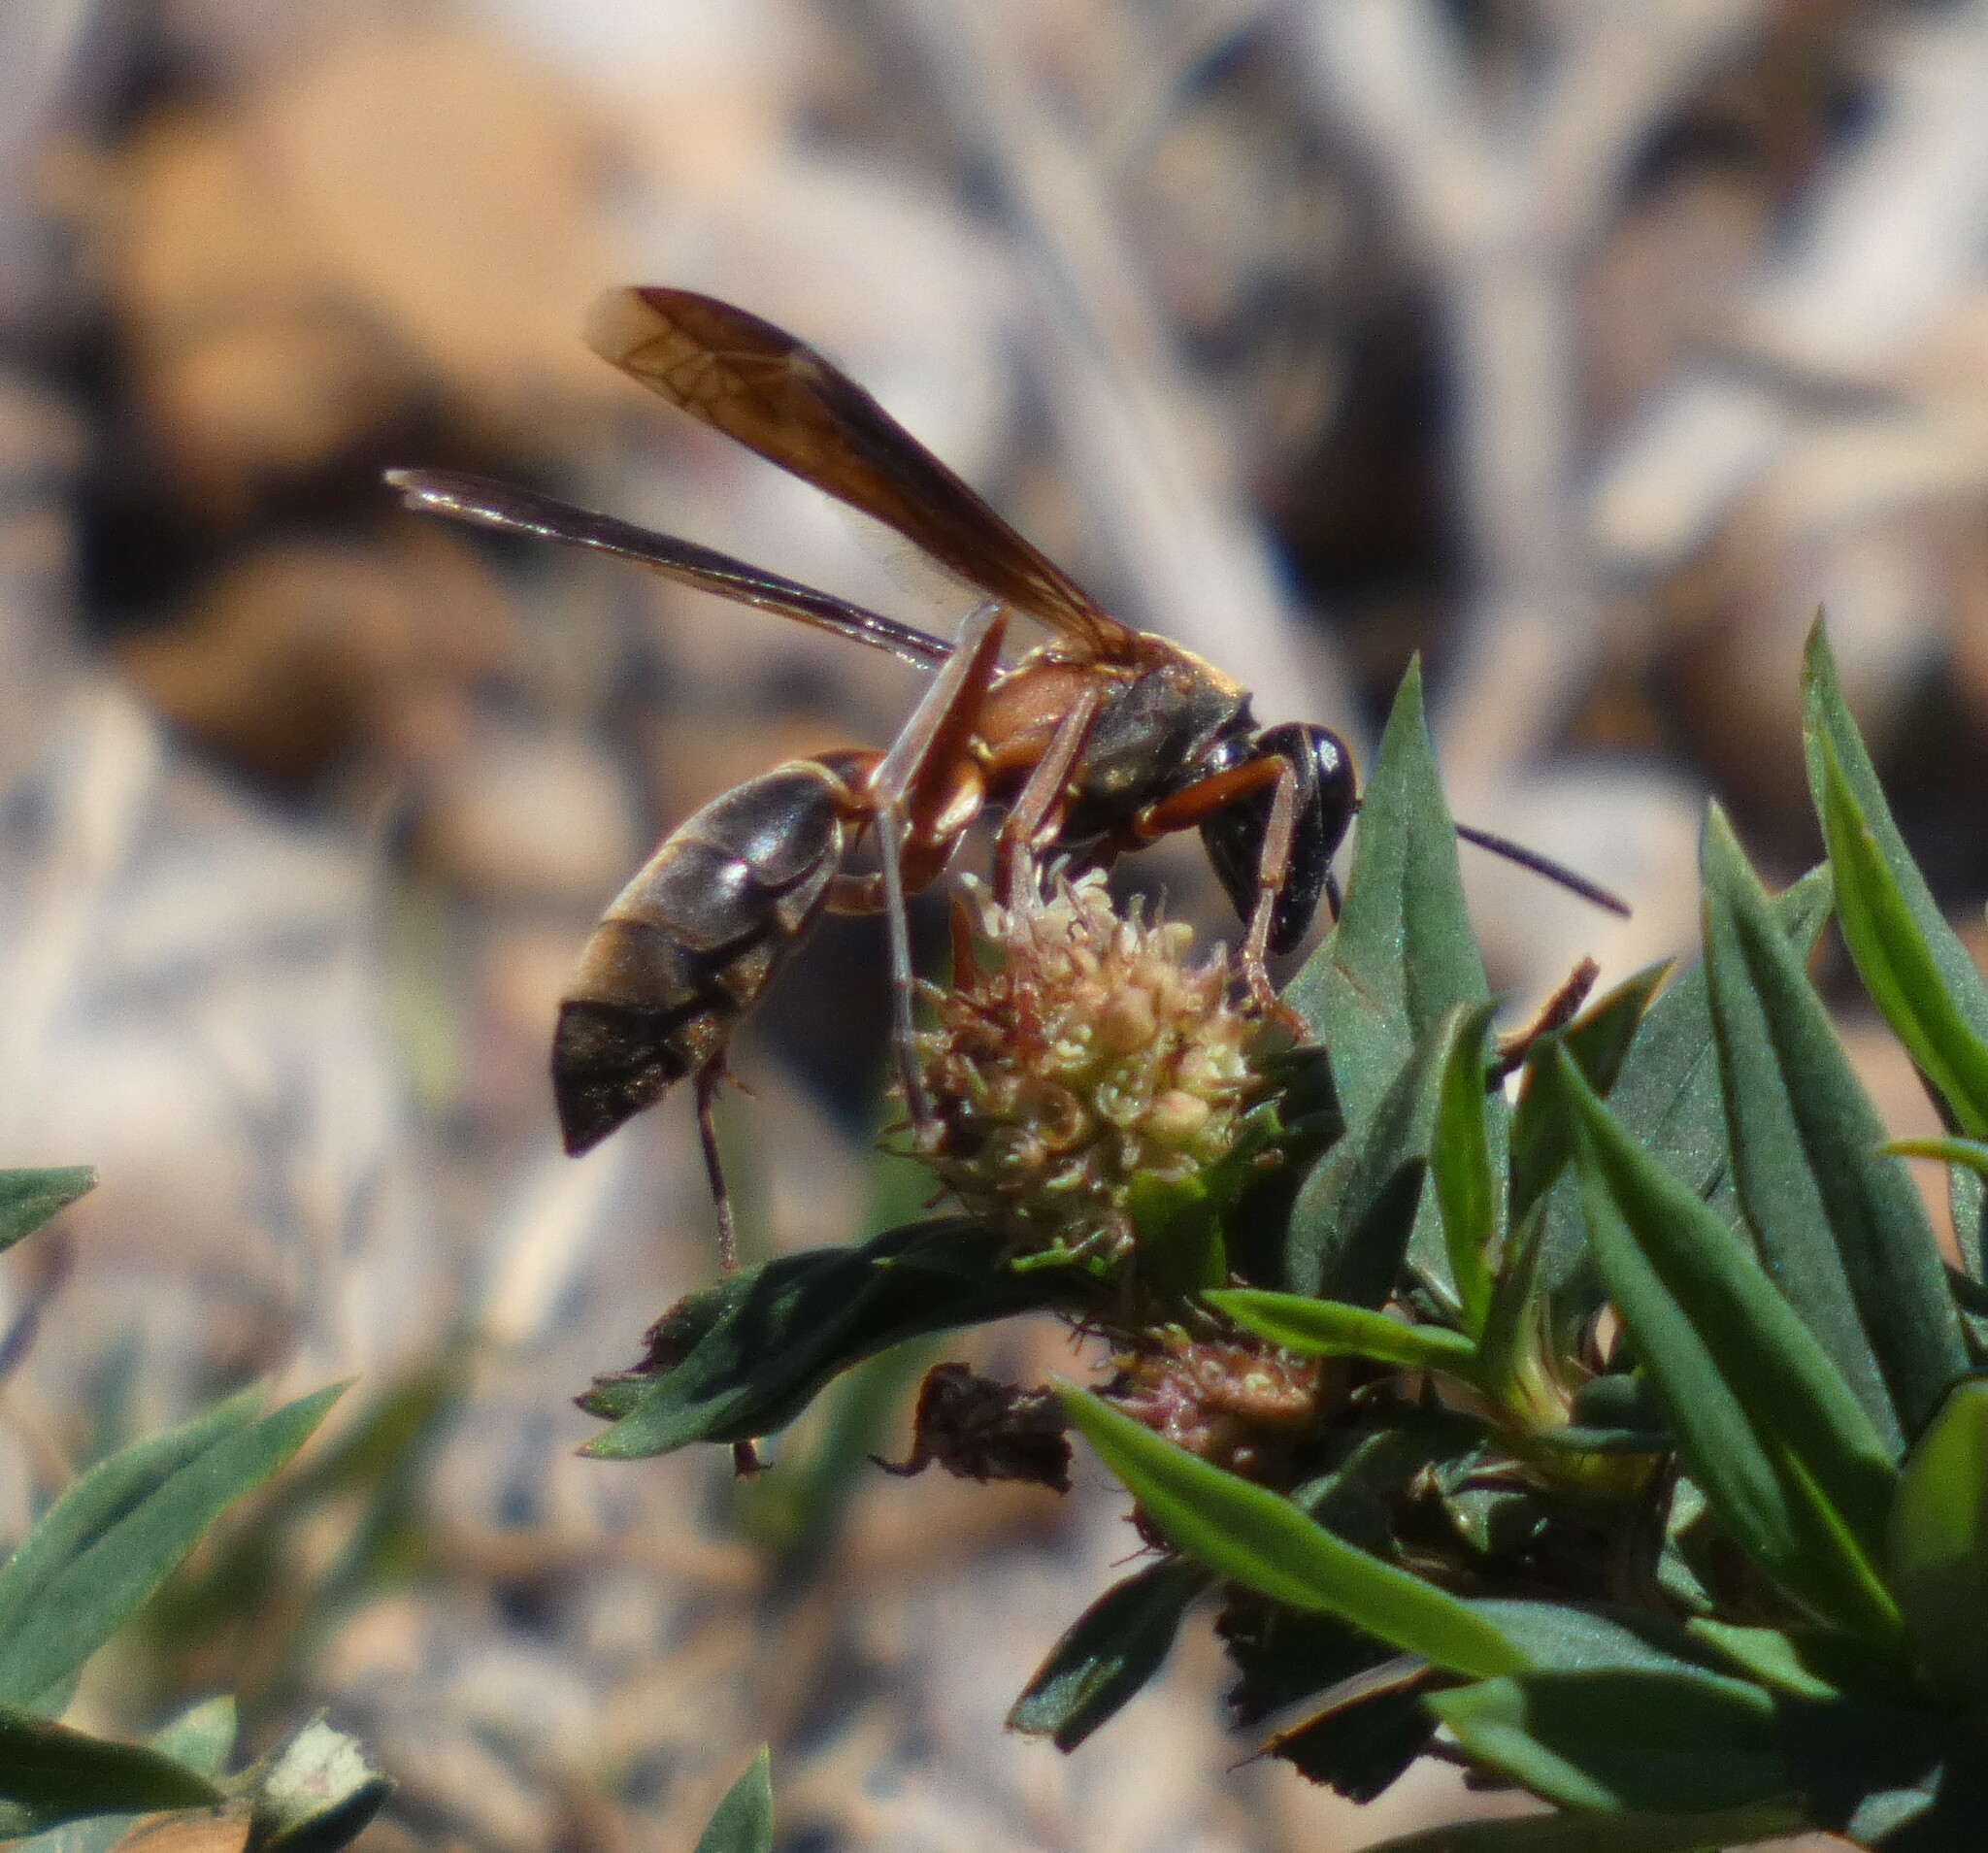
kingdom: Animalia
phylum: Arthropoda
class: Insecta
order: Hymenoptera
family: Eumenidae
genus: Polistes
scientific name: Polistes subsericeus
